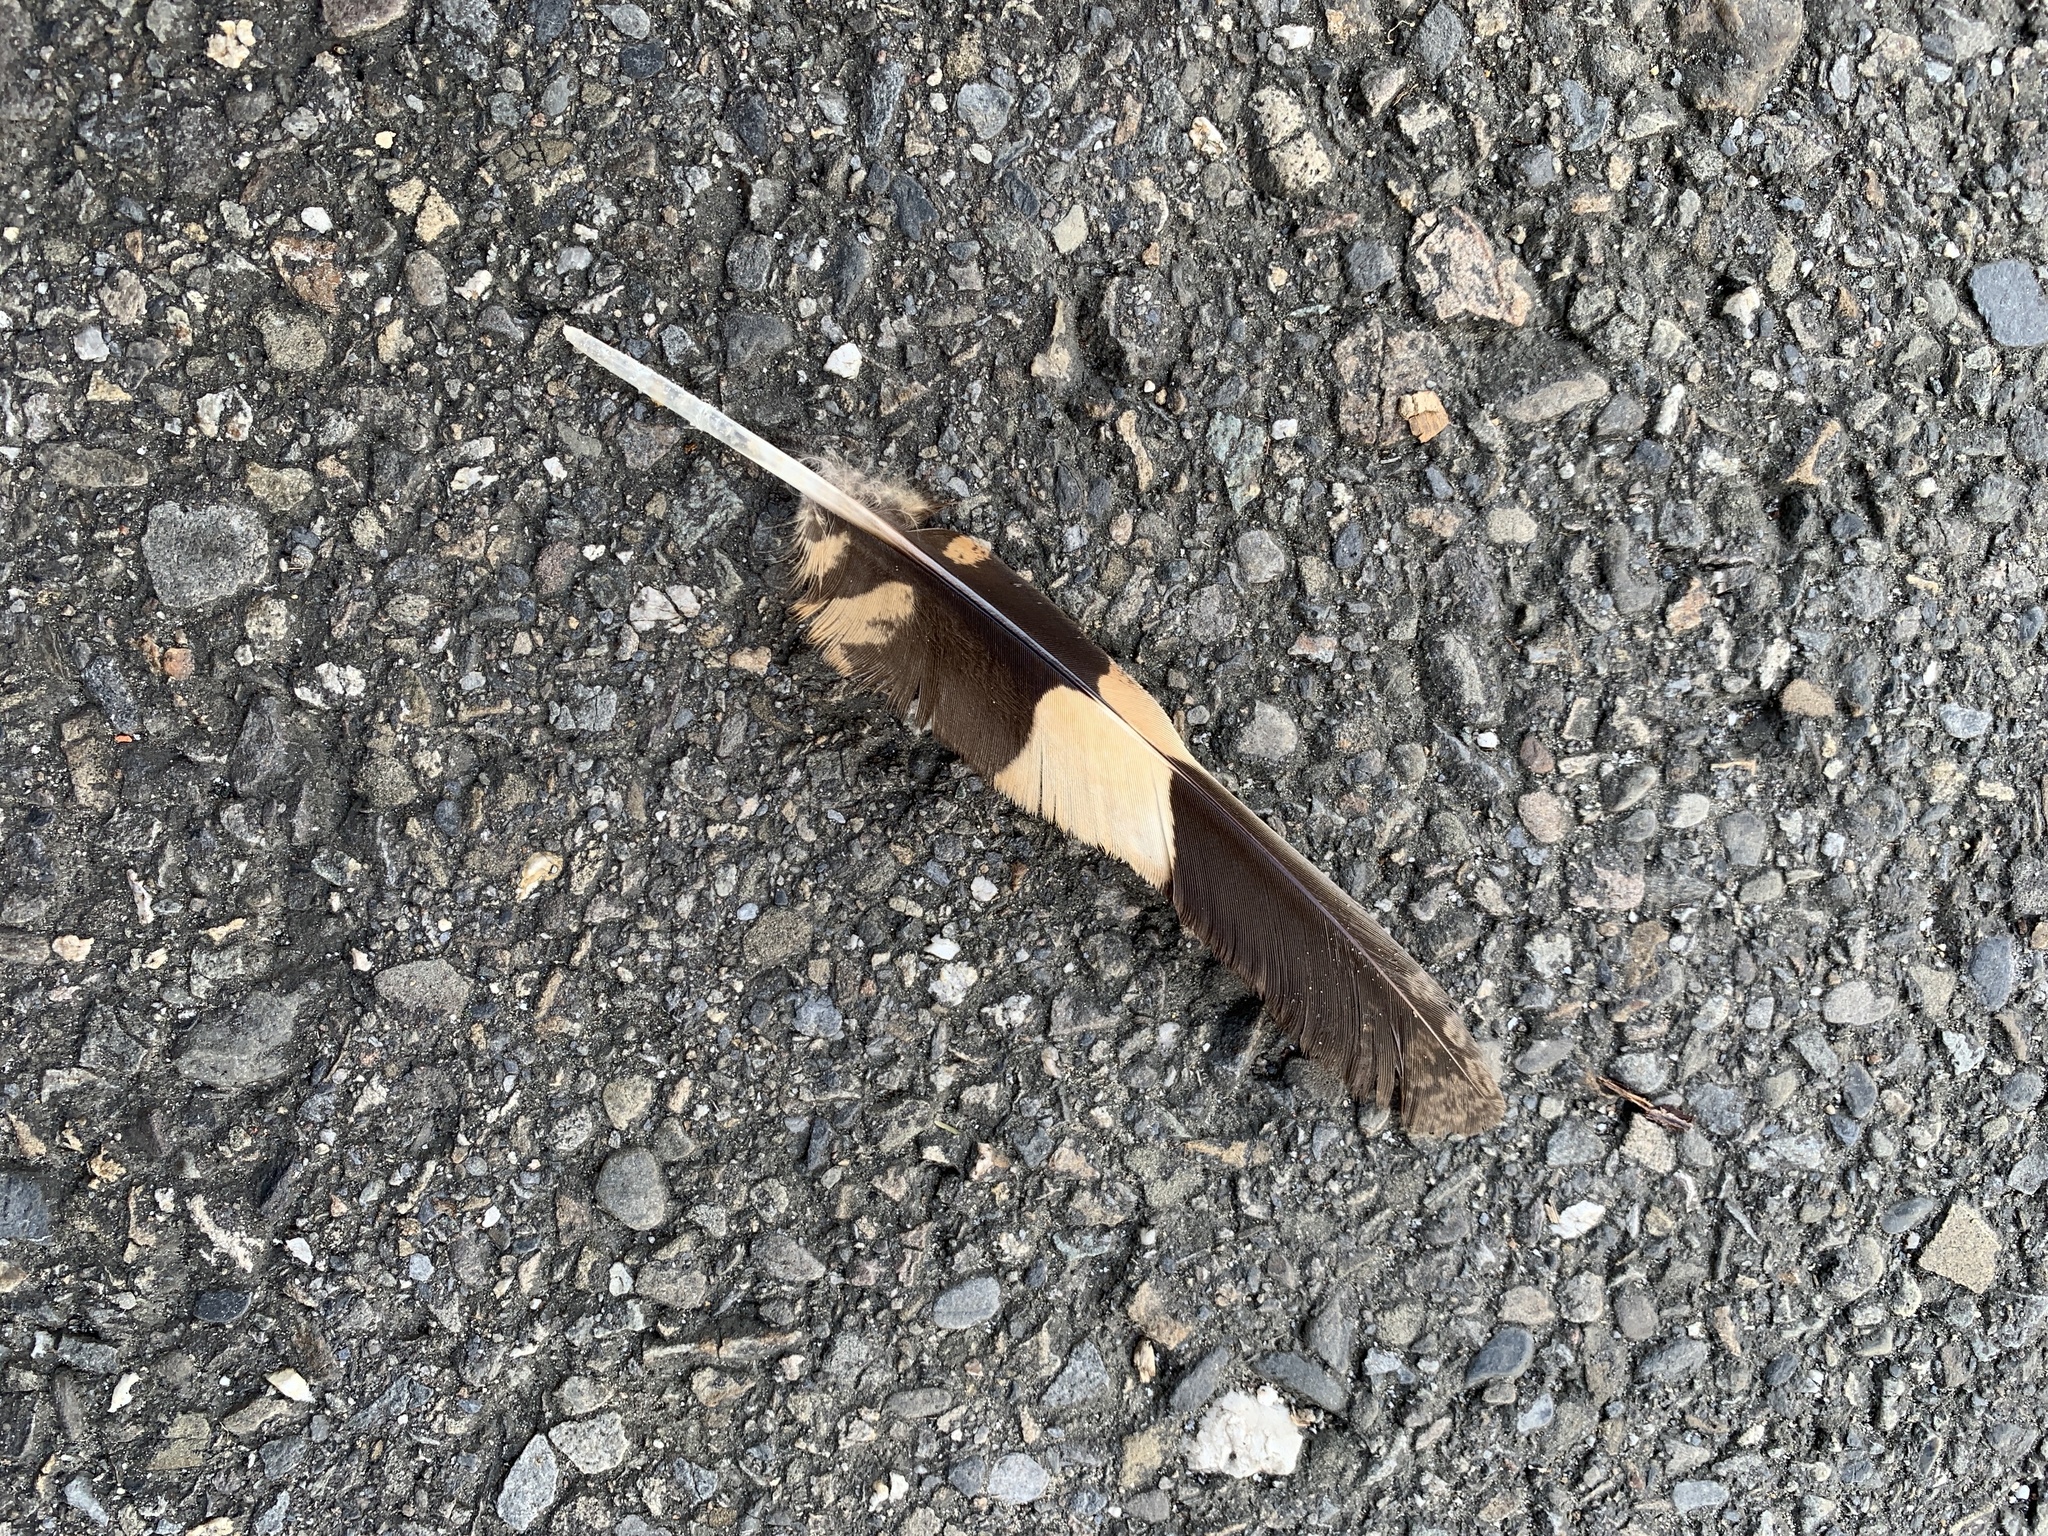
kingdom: Animalia
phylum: Chordata
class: Aves
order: Caprimulgiformes
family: Caprimulgidae
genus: Caprimulgus
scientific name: Caprimulgus affinis
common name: Savanna nightjar
